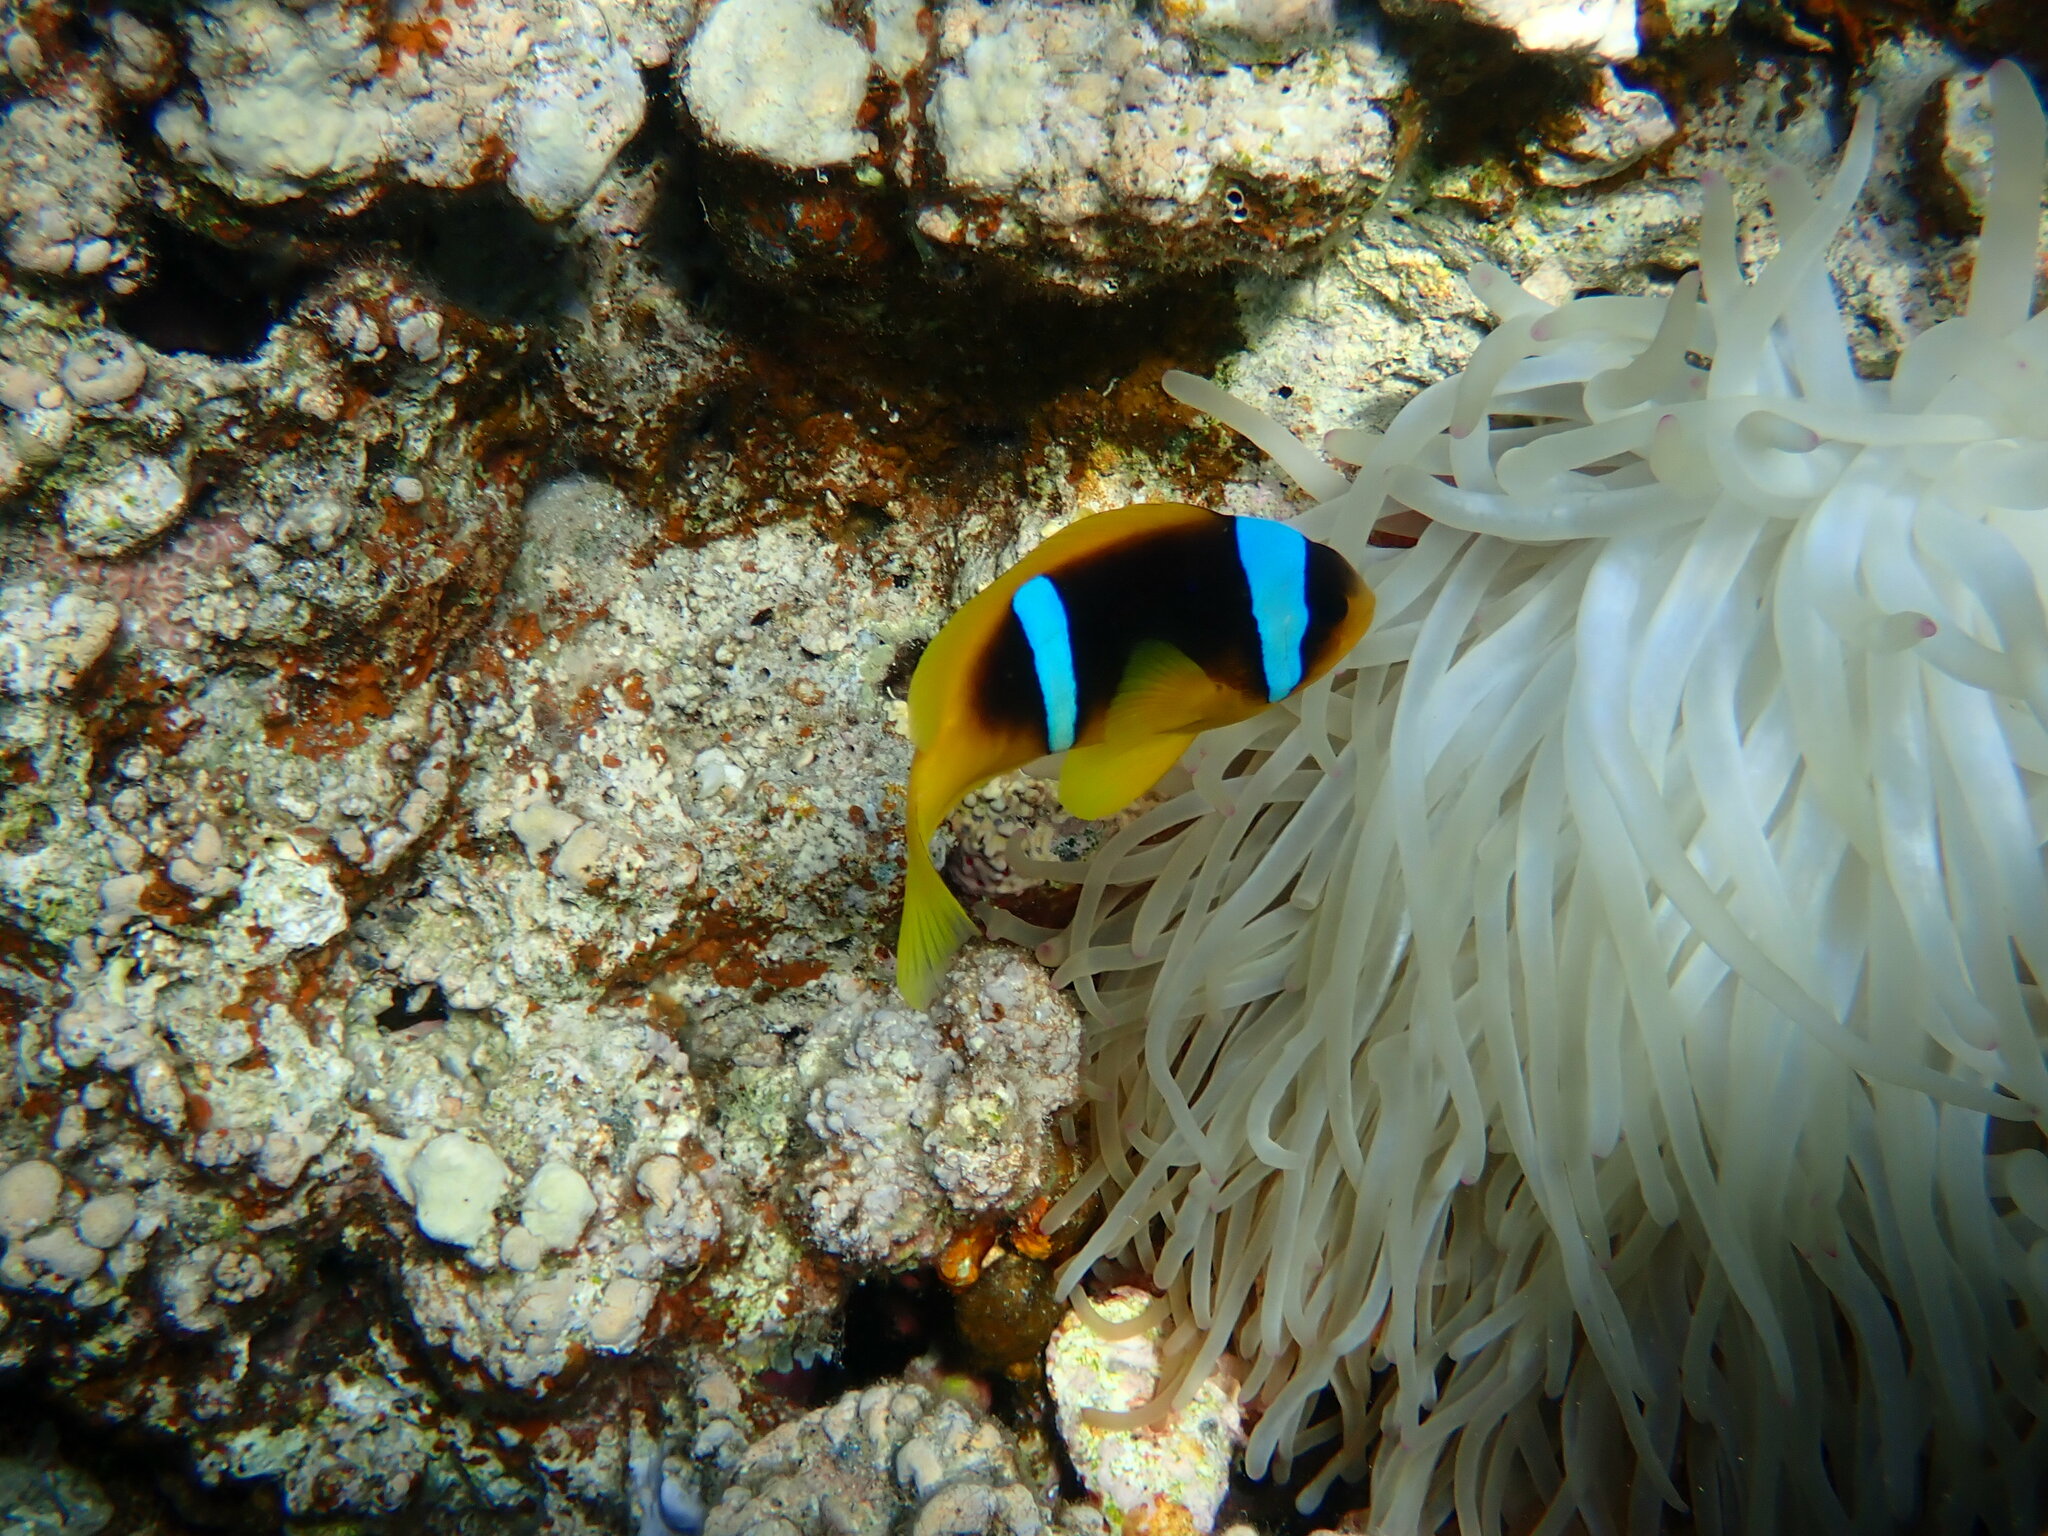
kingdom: Animalia
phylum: Chordata
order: Perciformes
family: Pomacentridae
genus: Amphiprion
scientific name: Amphiprion bicinctus
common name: Two-banded anemonefish
